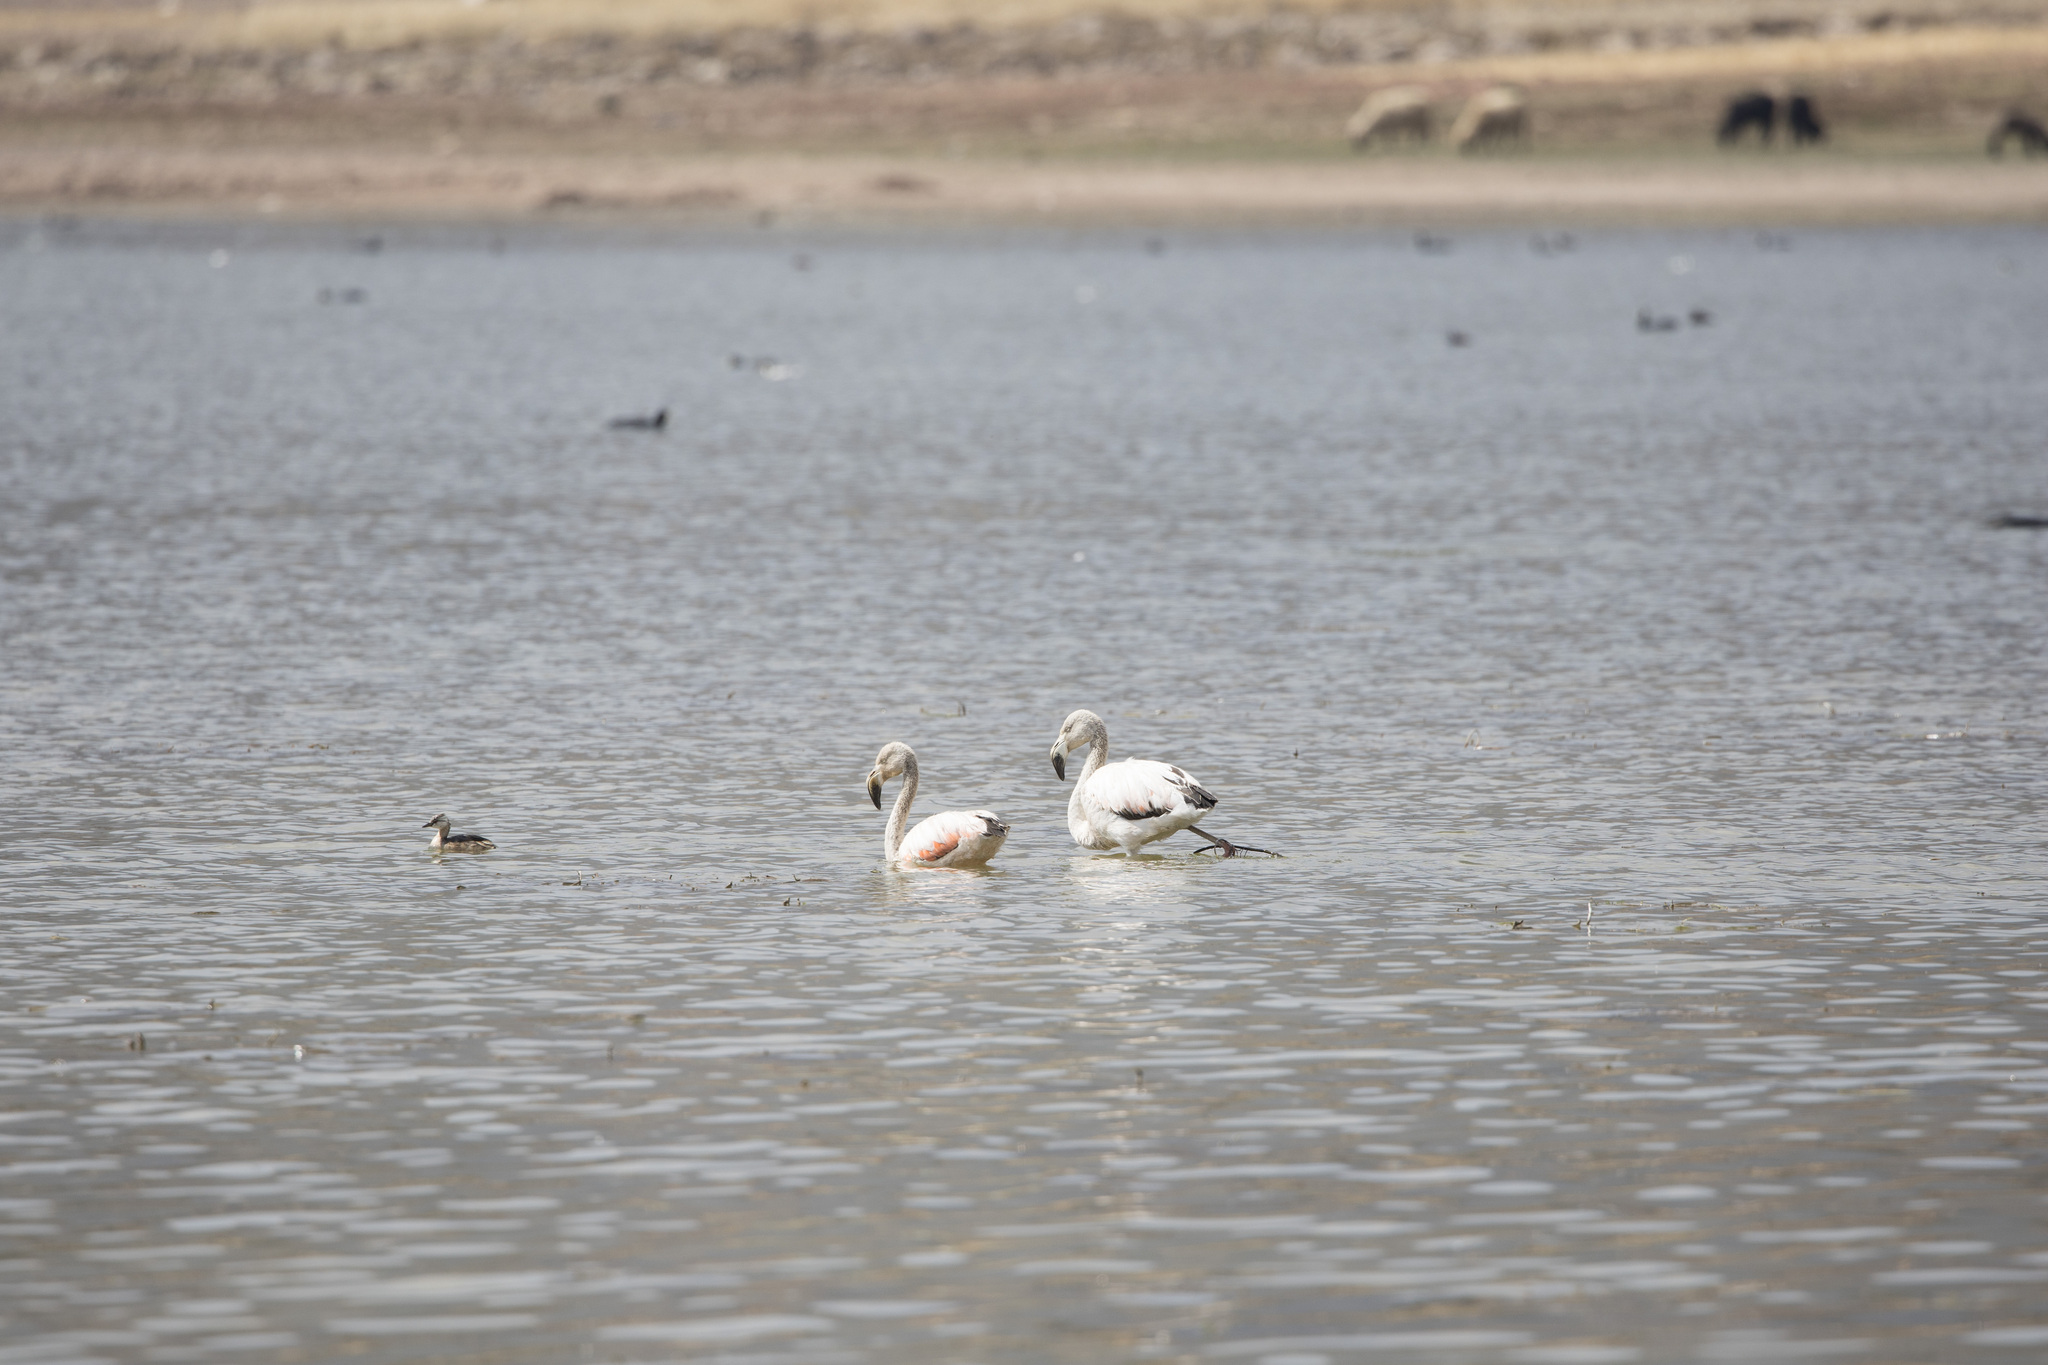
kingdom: Animalia
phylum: Chordata
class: Aves
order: Podicipediformes
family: Podicipedidae
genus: Rollandia
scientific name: Rollandia rolland
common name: White-tufted grebe
